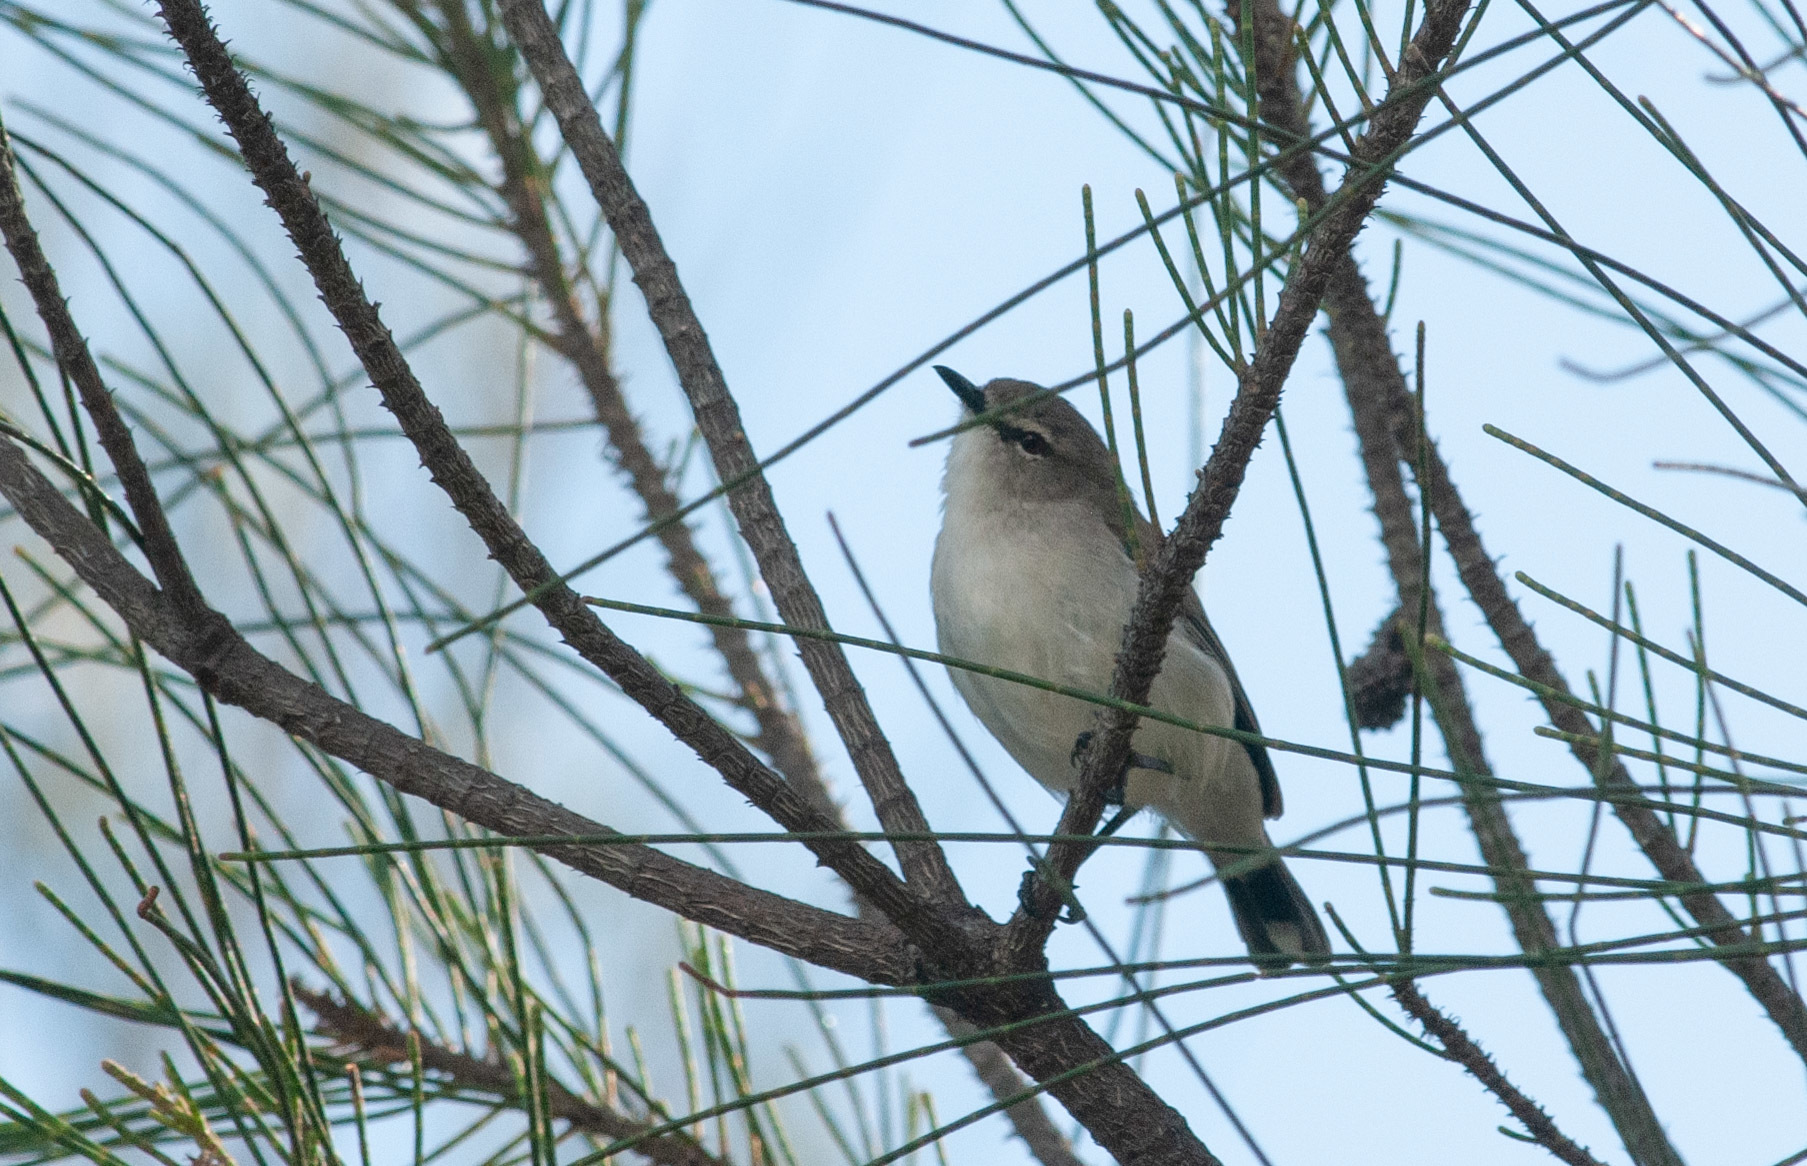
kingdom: Animalia
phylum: Chordata
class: Aves
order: Passeriformes
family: Acanthizidae
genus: Gerygone
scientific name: Gerygone levigaster
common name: Mangrove gerygone
